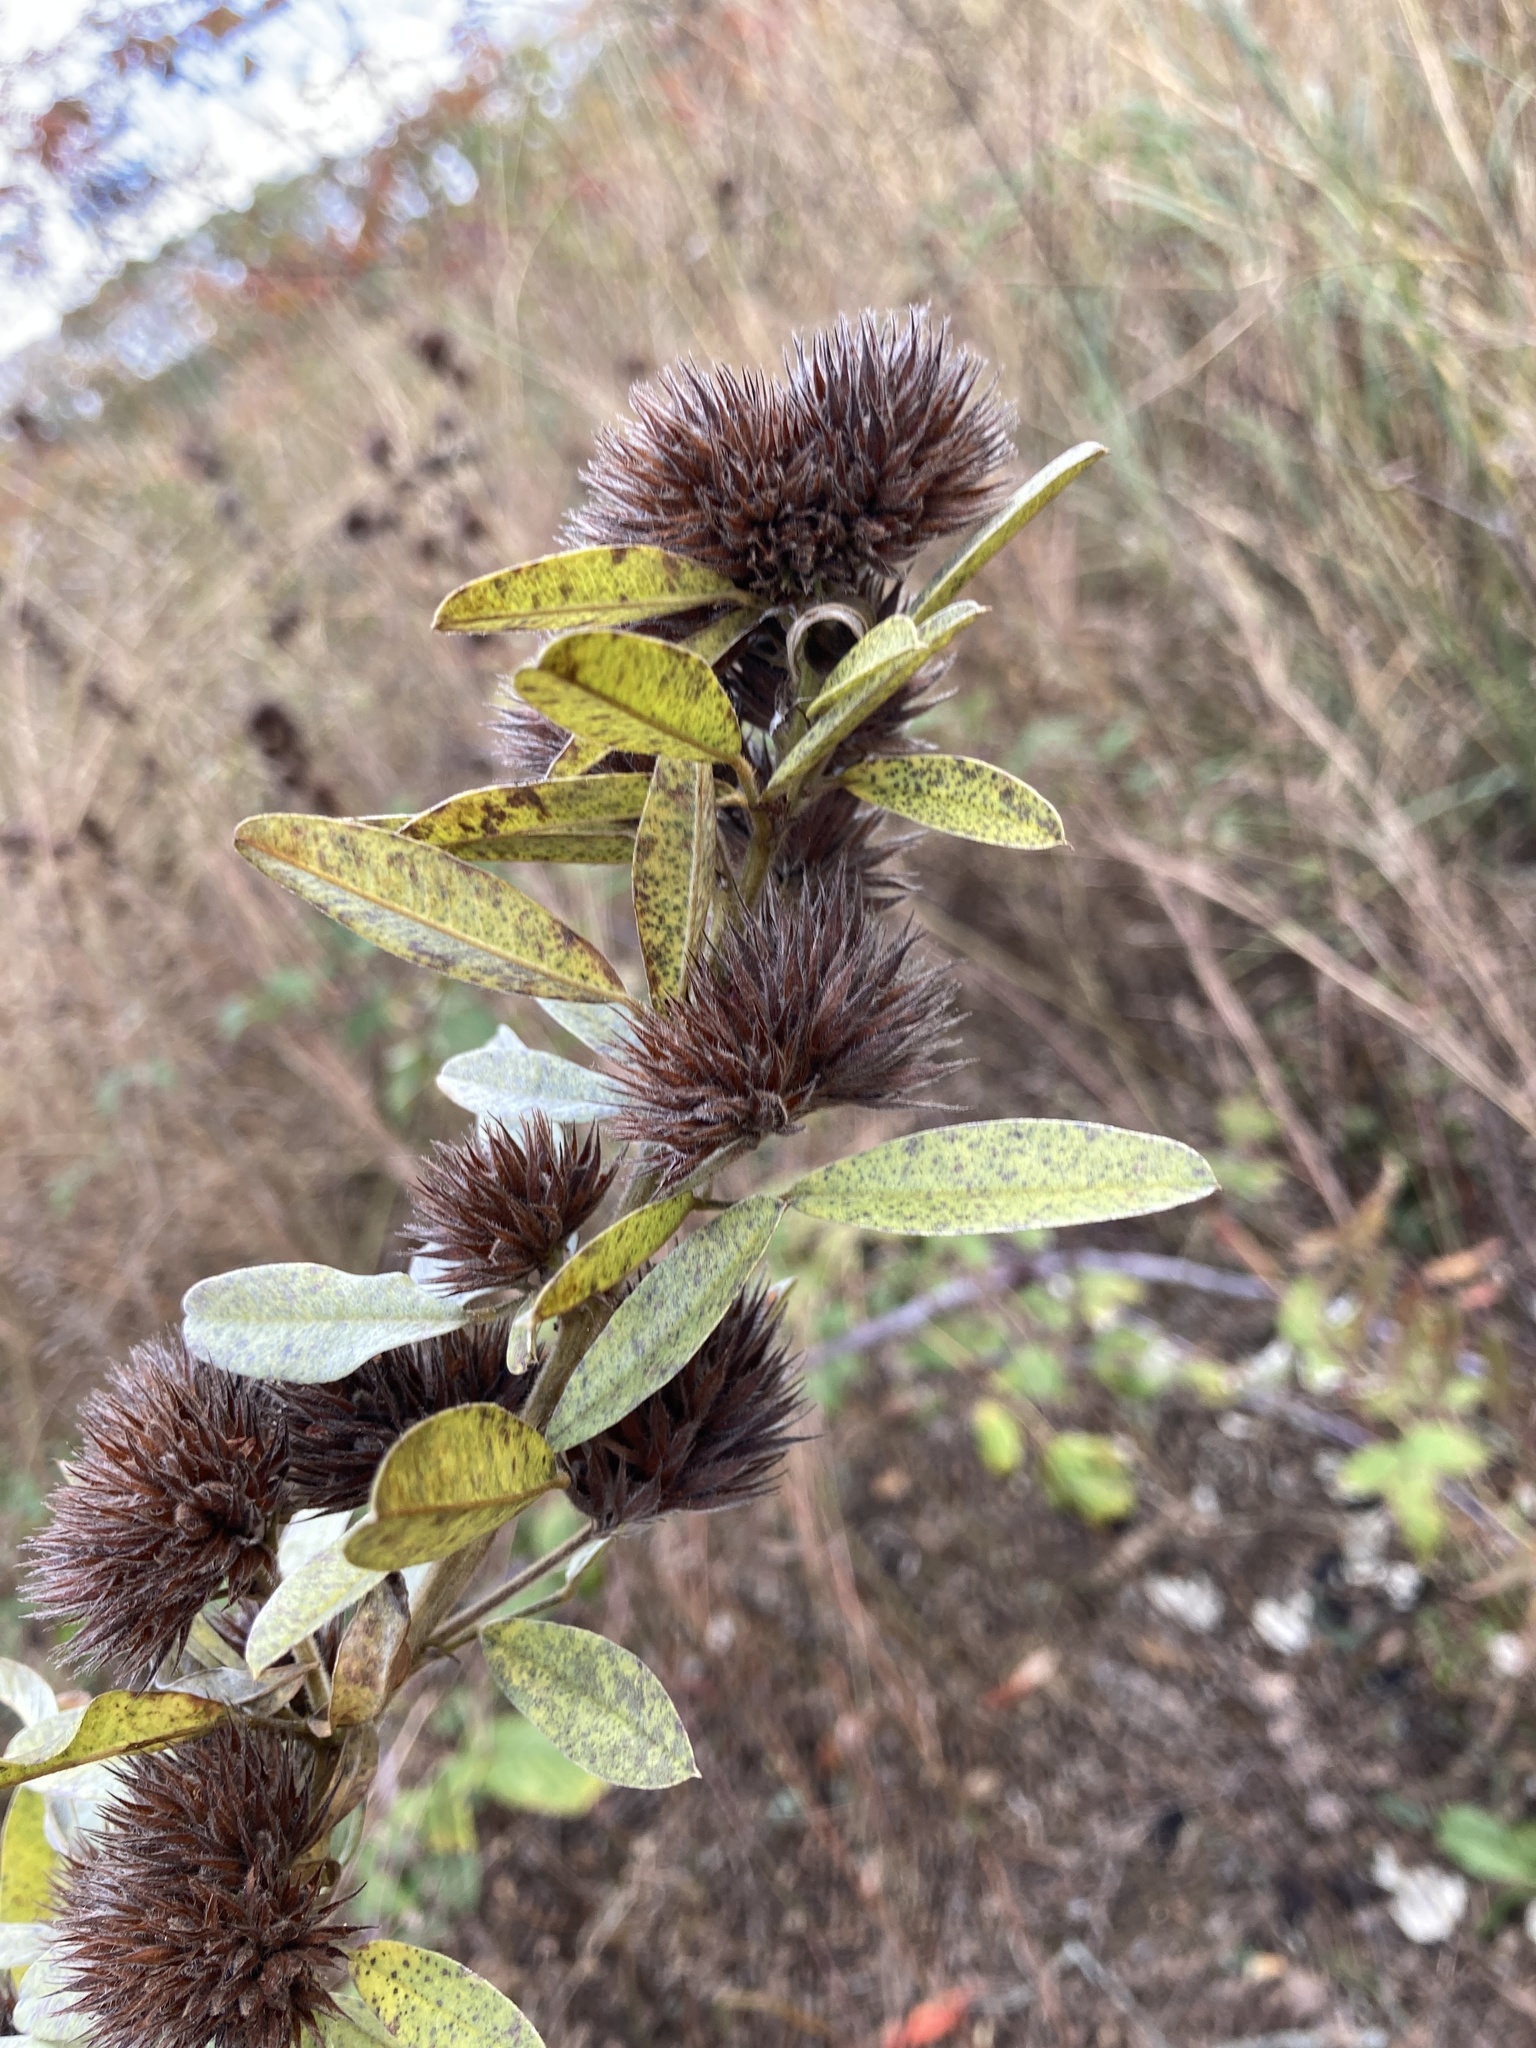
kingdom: Plantae
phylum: Tracheophyta
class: Magnoliopsida
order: Fabales
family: Fabaceae
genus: Lespedeza
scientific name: Lespedeza capitata
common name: Dusty clover
